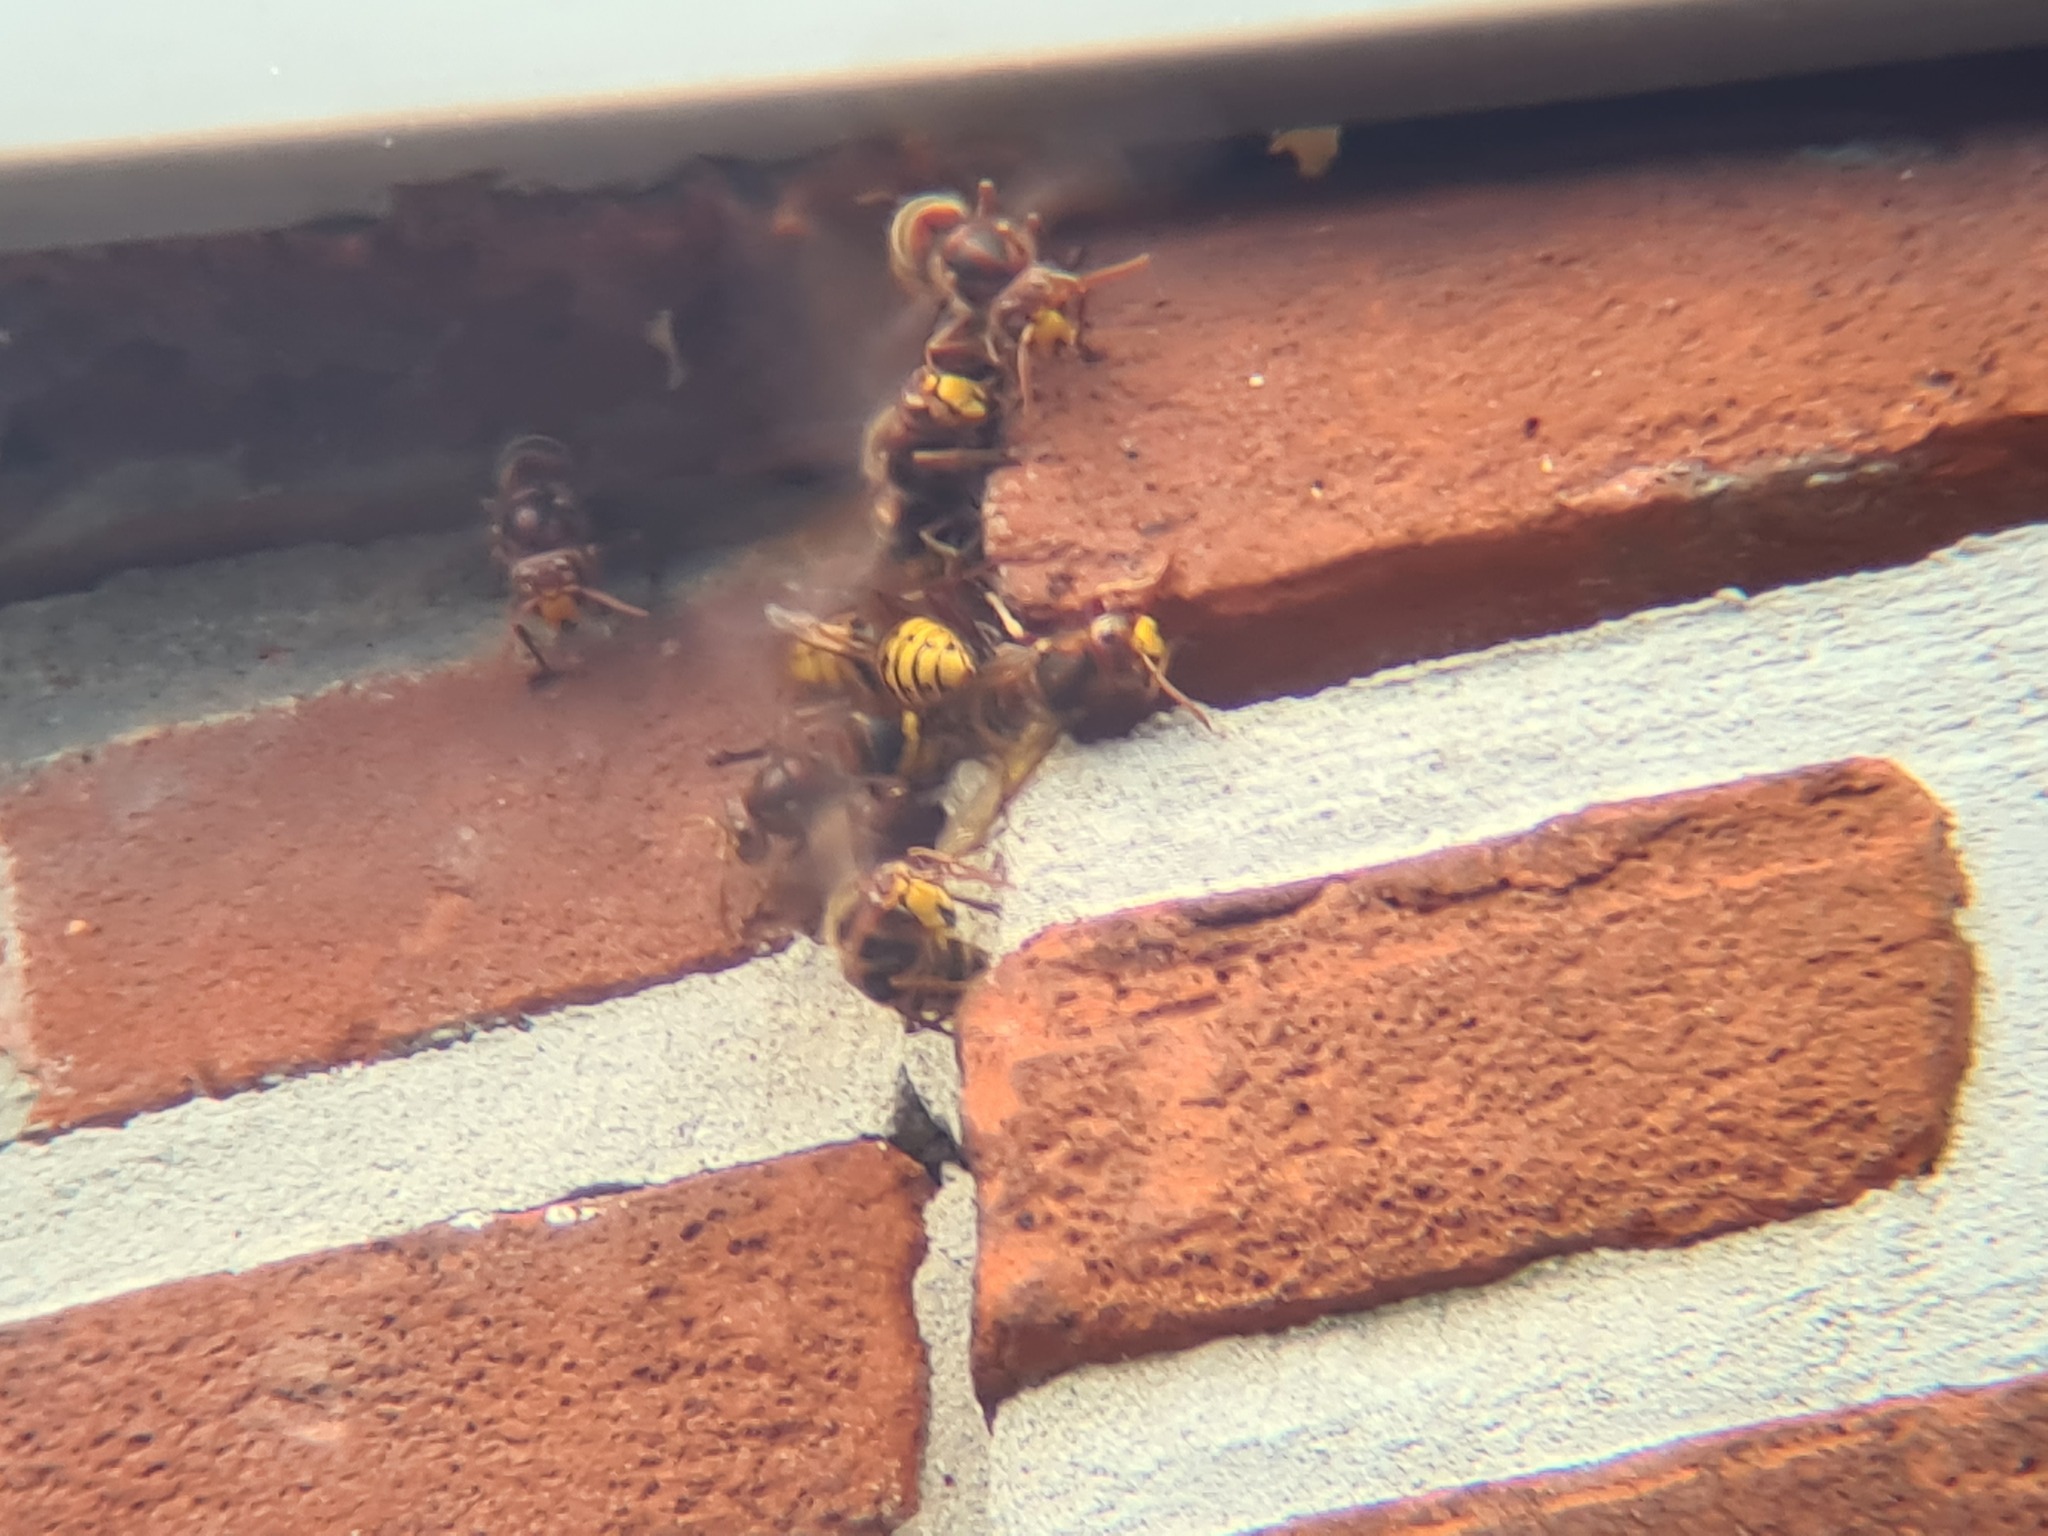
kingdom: Animalia
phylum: Arthropoda
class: Insecta
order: Hymenoptera
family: Vespidae
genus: Vespa
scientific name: Vespa crabro
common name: Hornet
